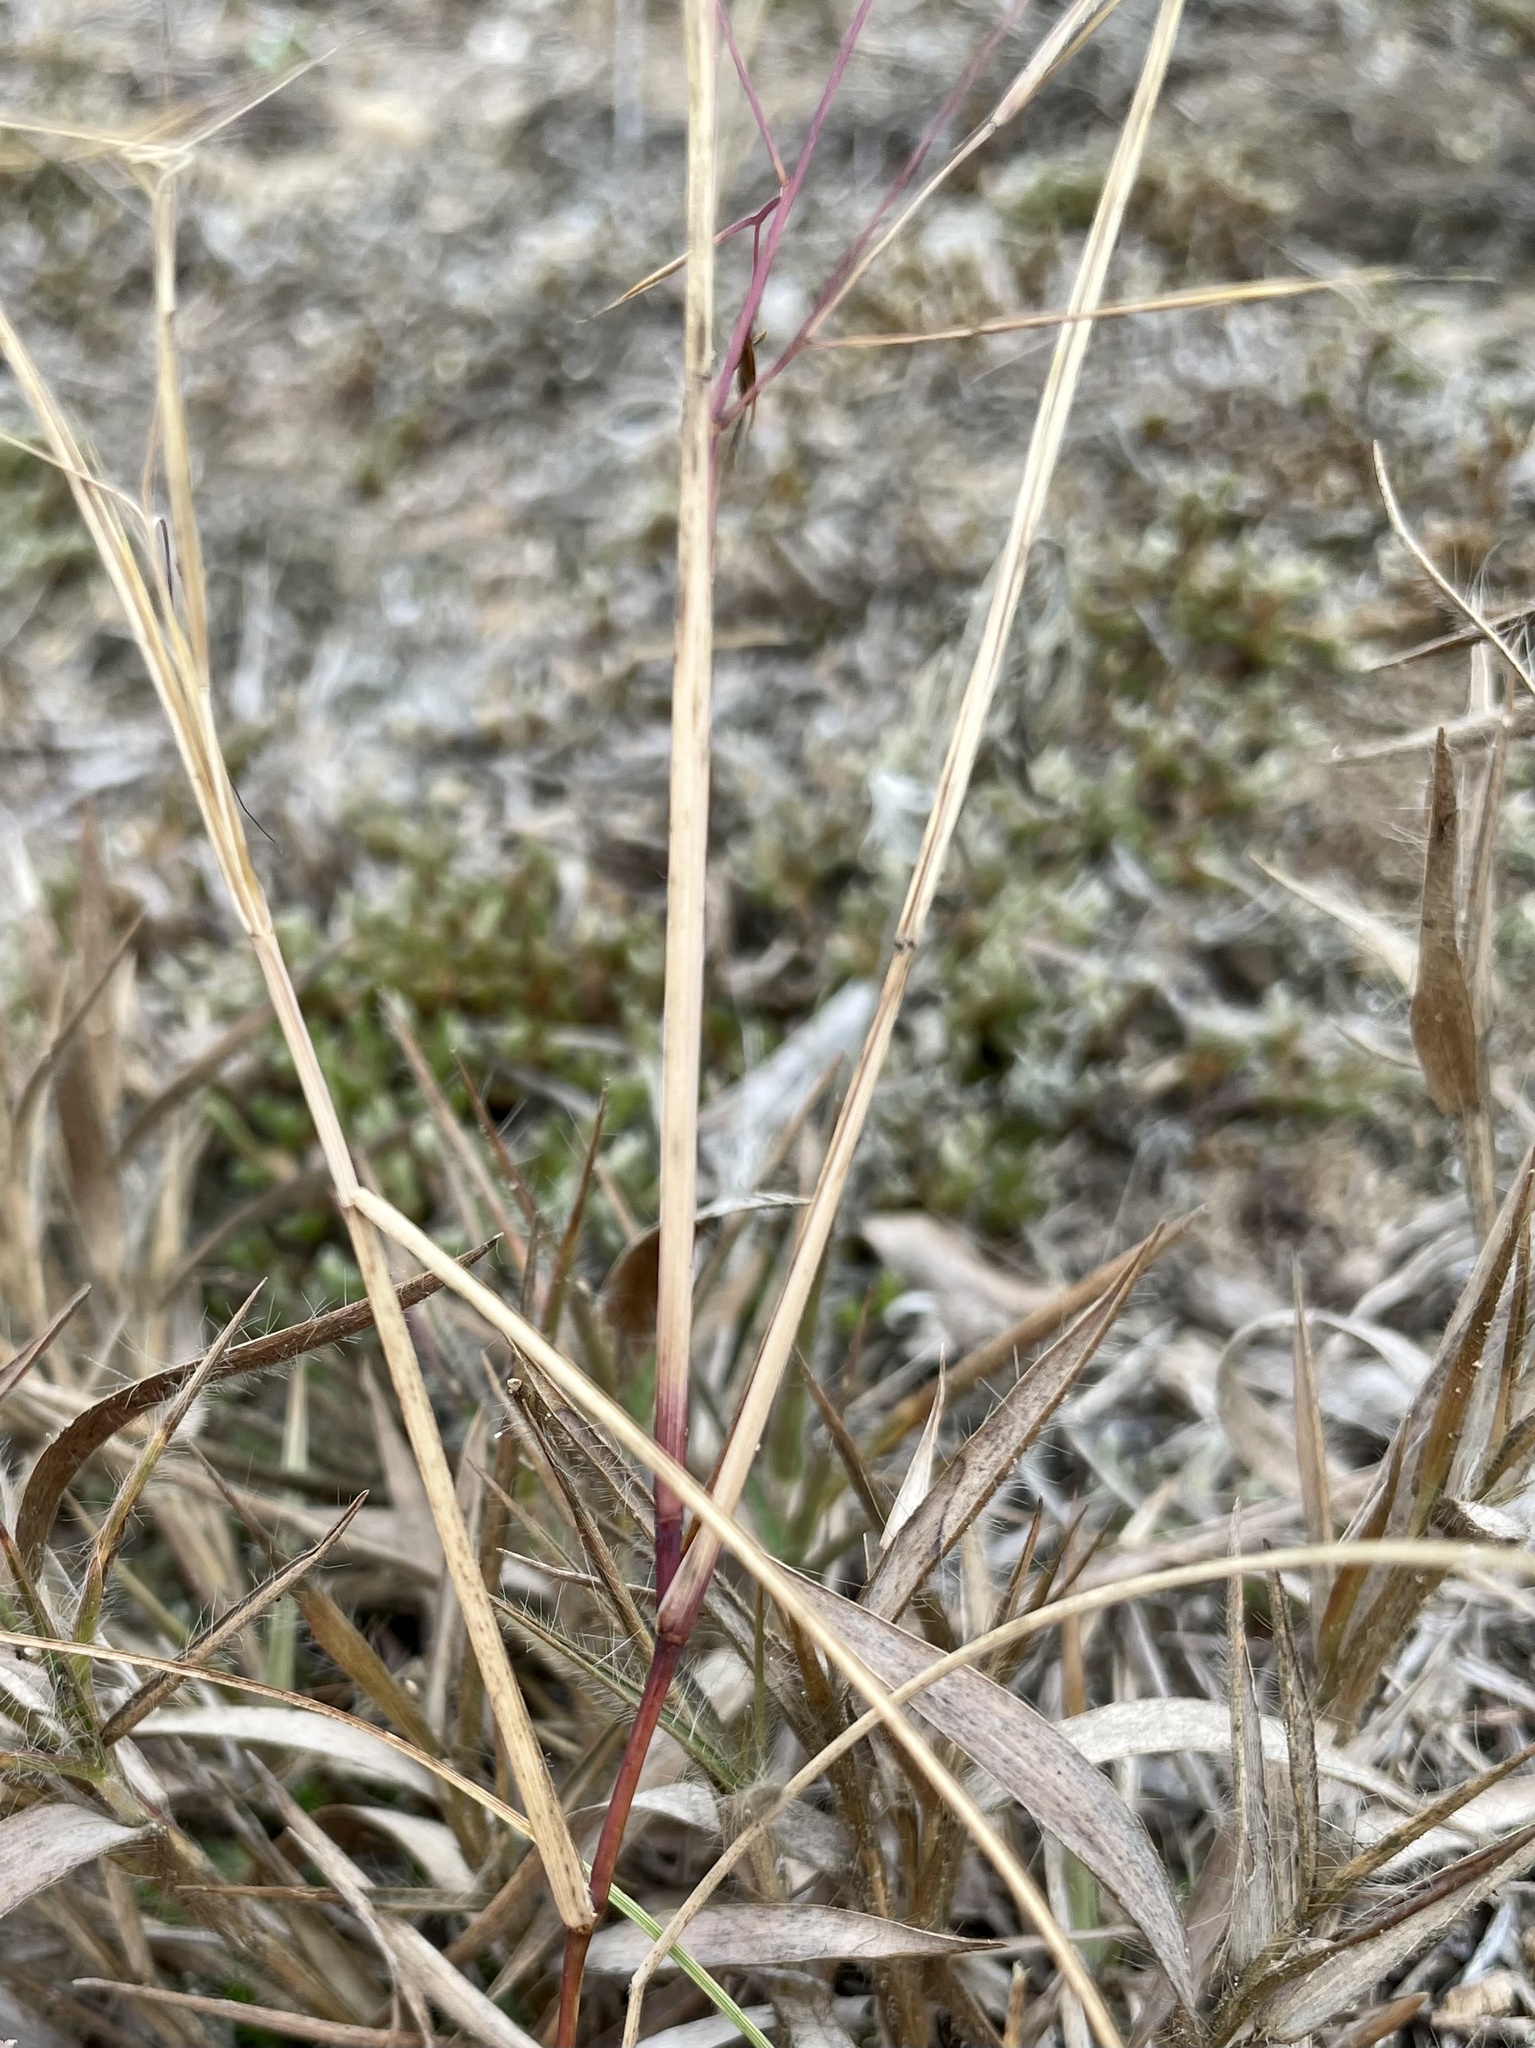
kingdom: Plantae
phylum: Tracheophyta
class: Liliopsida
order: Poales
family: Poaceae
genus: Aristida
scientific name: Aristida tuberculosa
